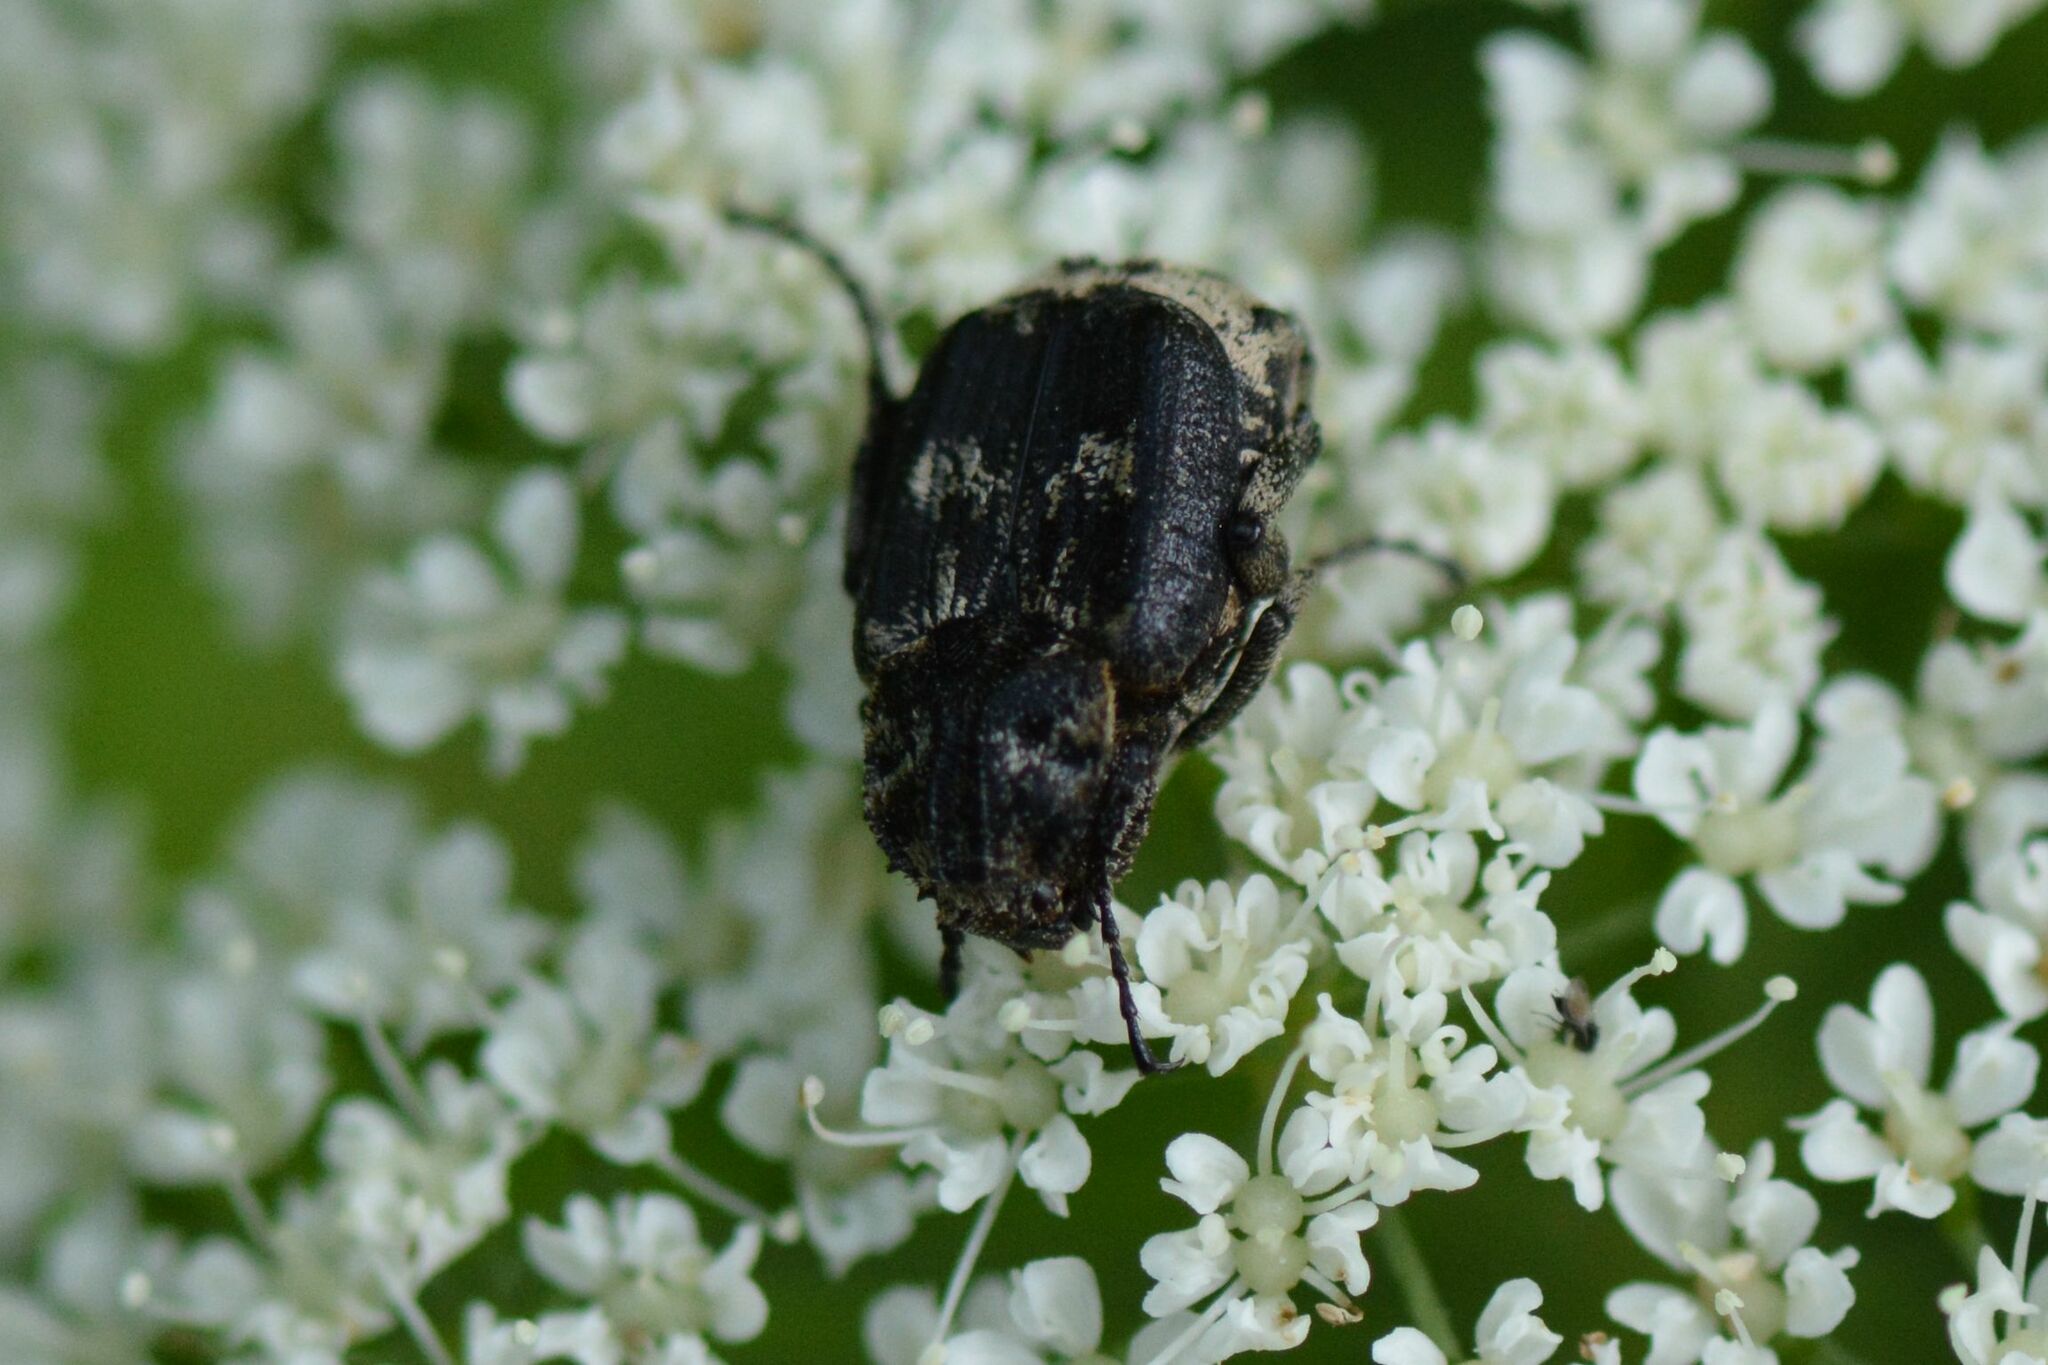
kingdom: Animalia
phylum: Arthropoda
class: Insecta
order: Coleoptera
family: Scarabaeidae
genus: Valgus
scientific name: Valgus hemipterus
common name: Bug flower chafer
